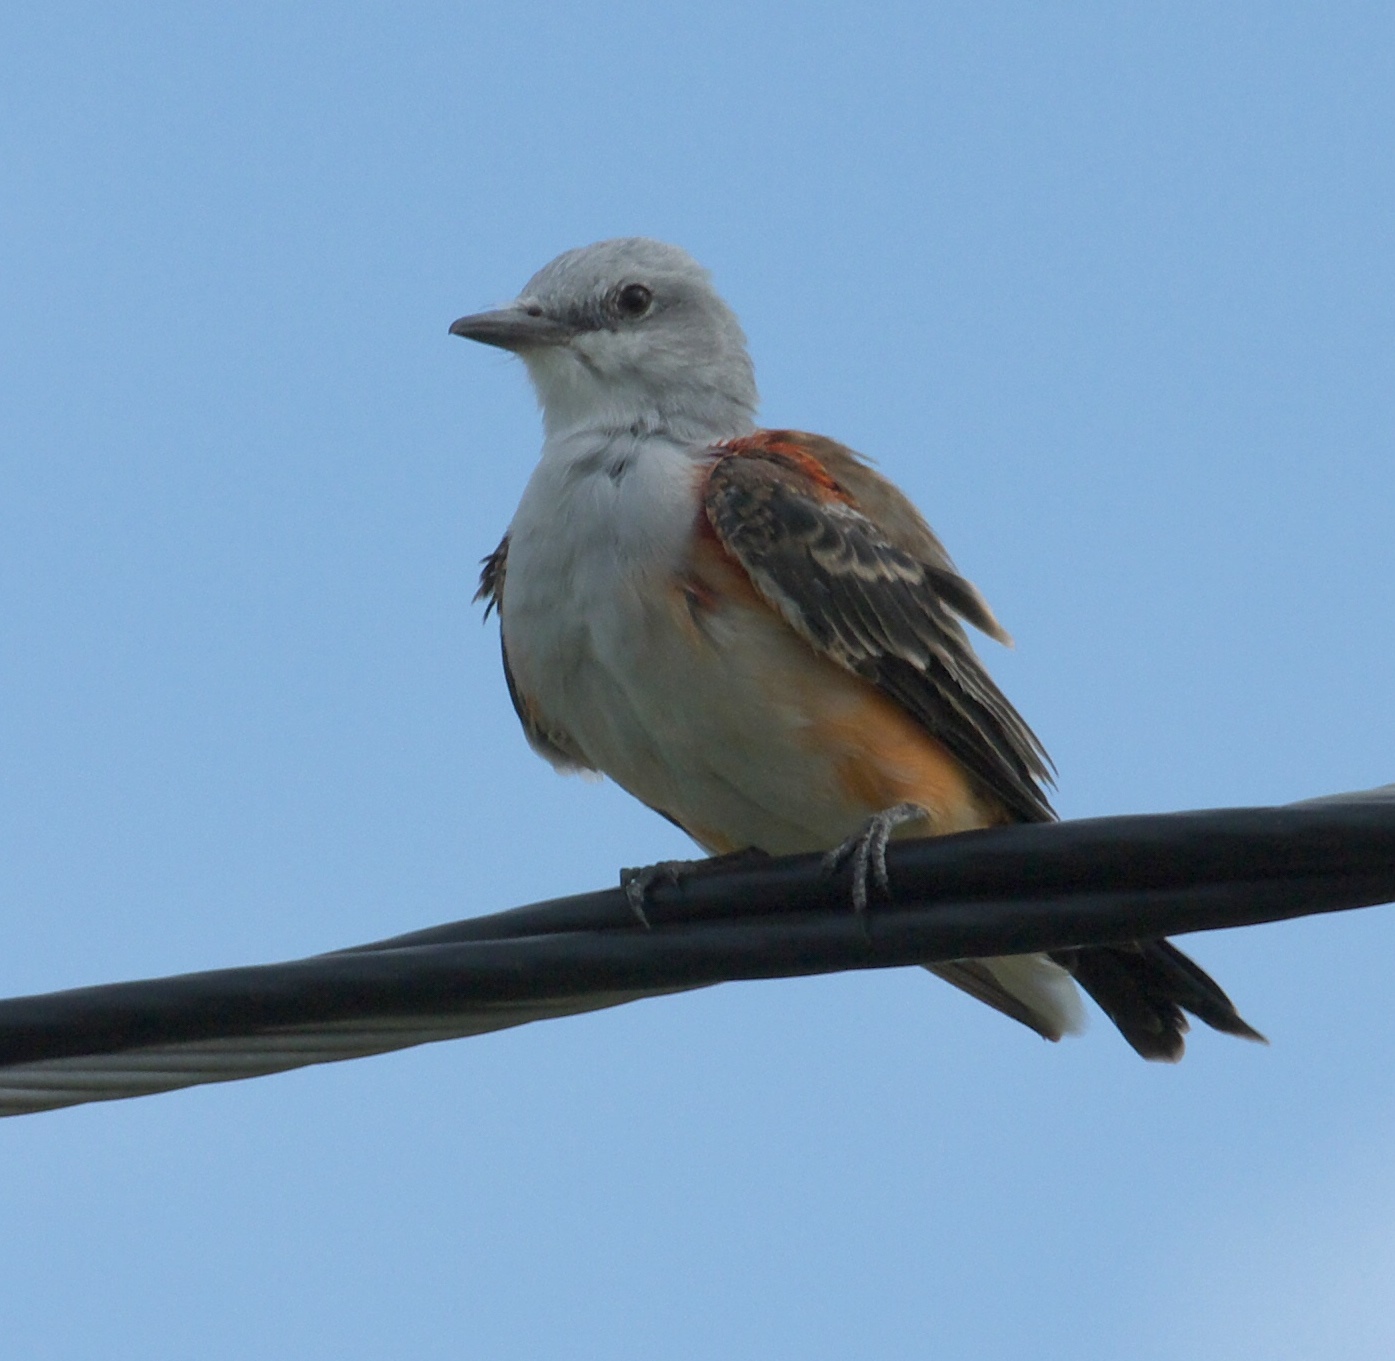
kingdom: Animalia
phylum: Chordata
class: Aves
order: Passeriformes
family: Tyrannidae
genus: Tyrannus
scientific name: Tyrannus forficatus
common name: Scissor-tailed flycatcher
